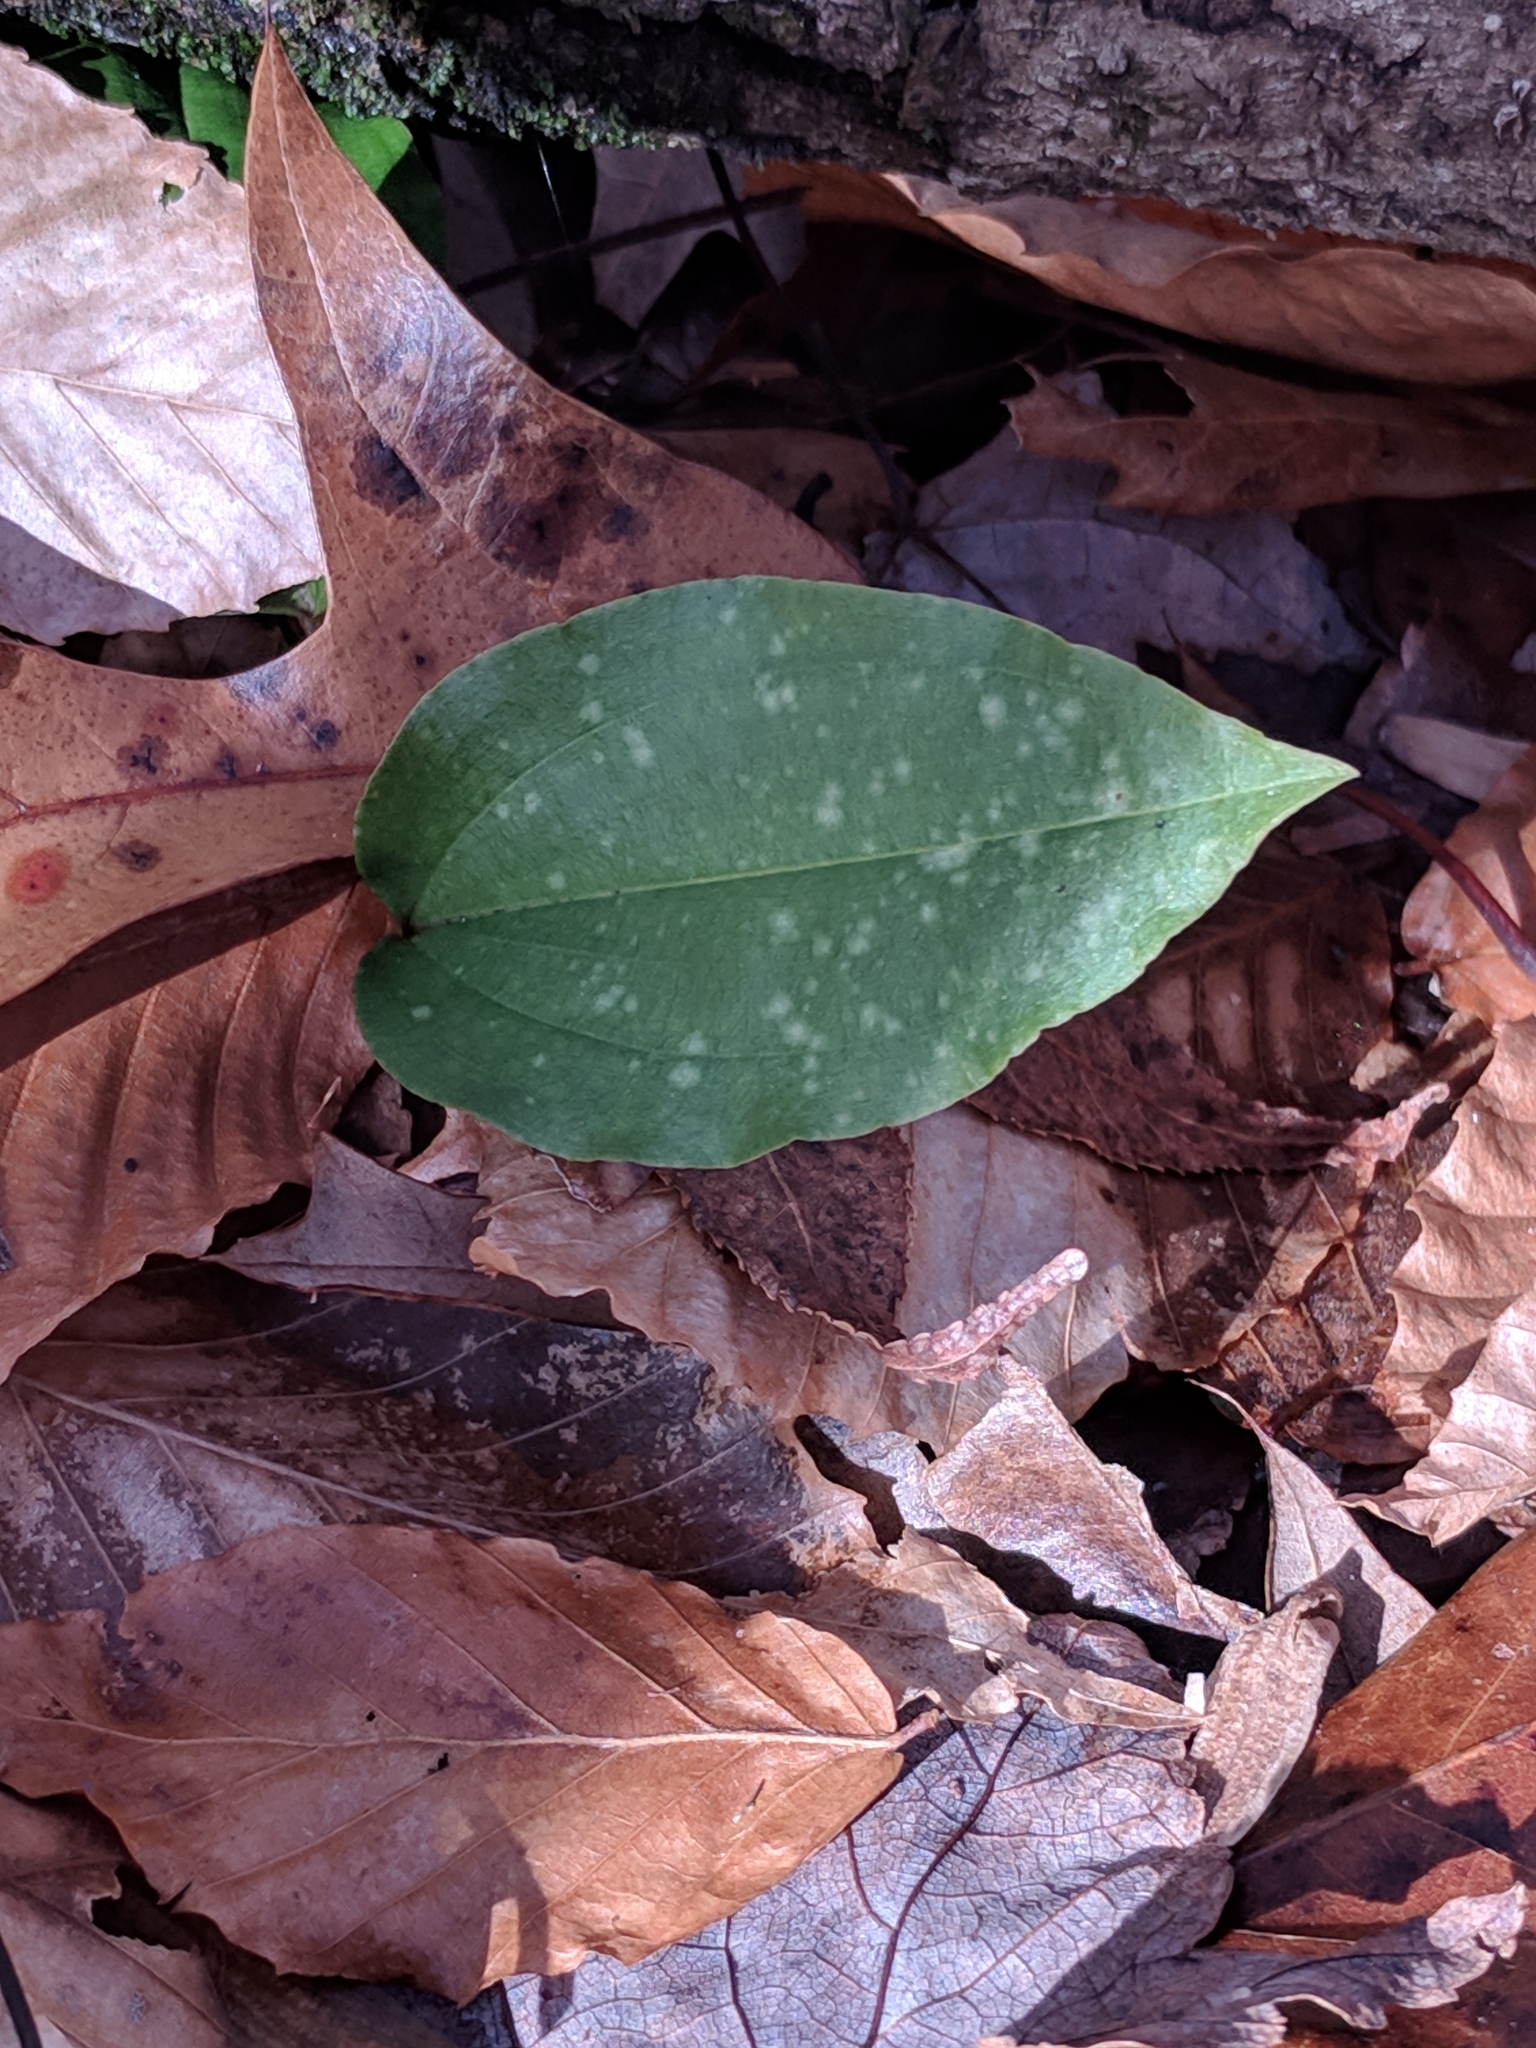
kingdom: Plantae
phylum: Tracheophyta
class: Liliopsida
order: Asparagales
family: Orchidaceae
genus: Tipularia
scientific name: Tipularia discolor
